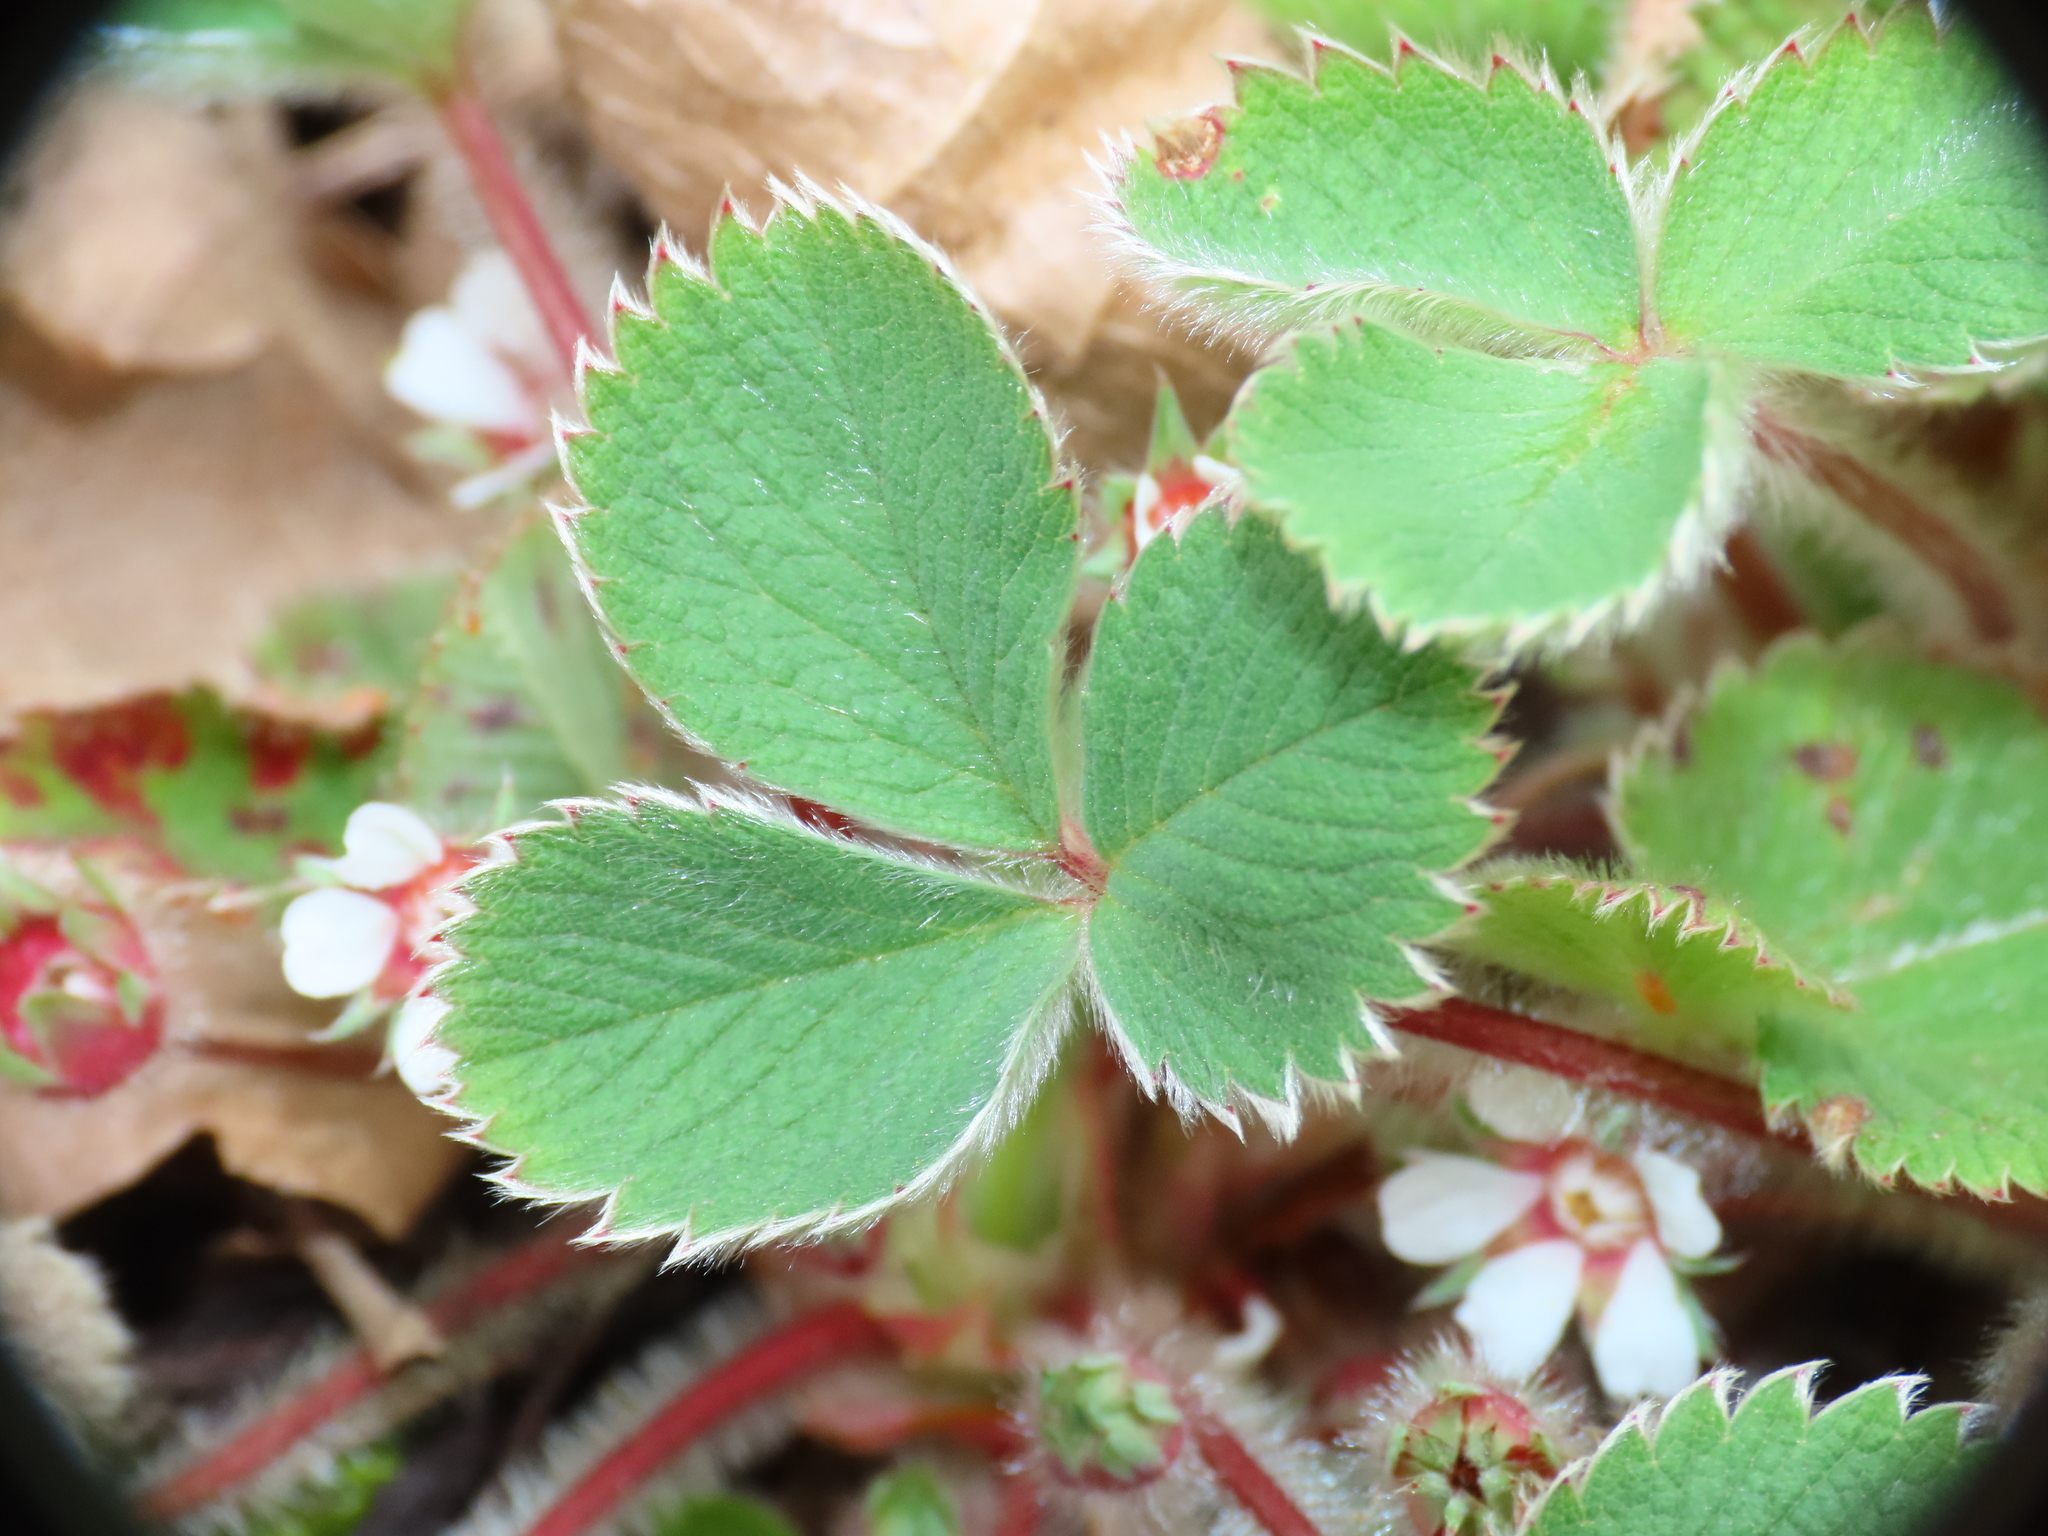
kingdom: Plantae
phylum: Tracheophyta
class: Magnoliopsida
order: Rosales
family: Rosaceae
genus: Potentilla
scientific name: Potentilla micrantha
